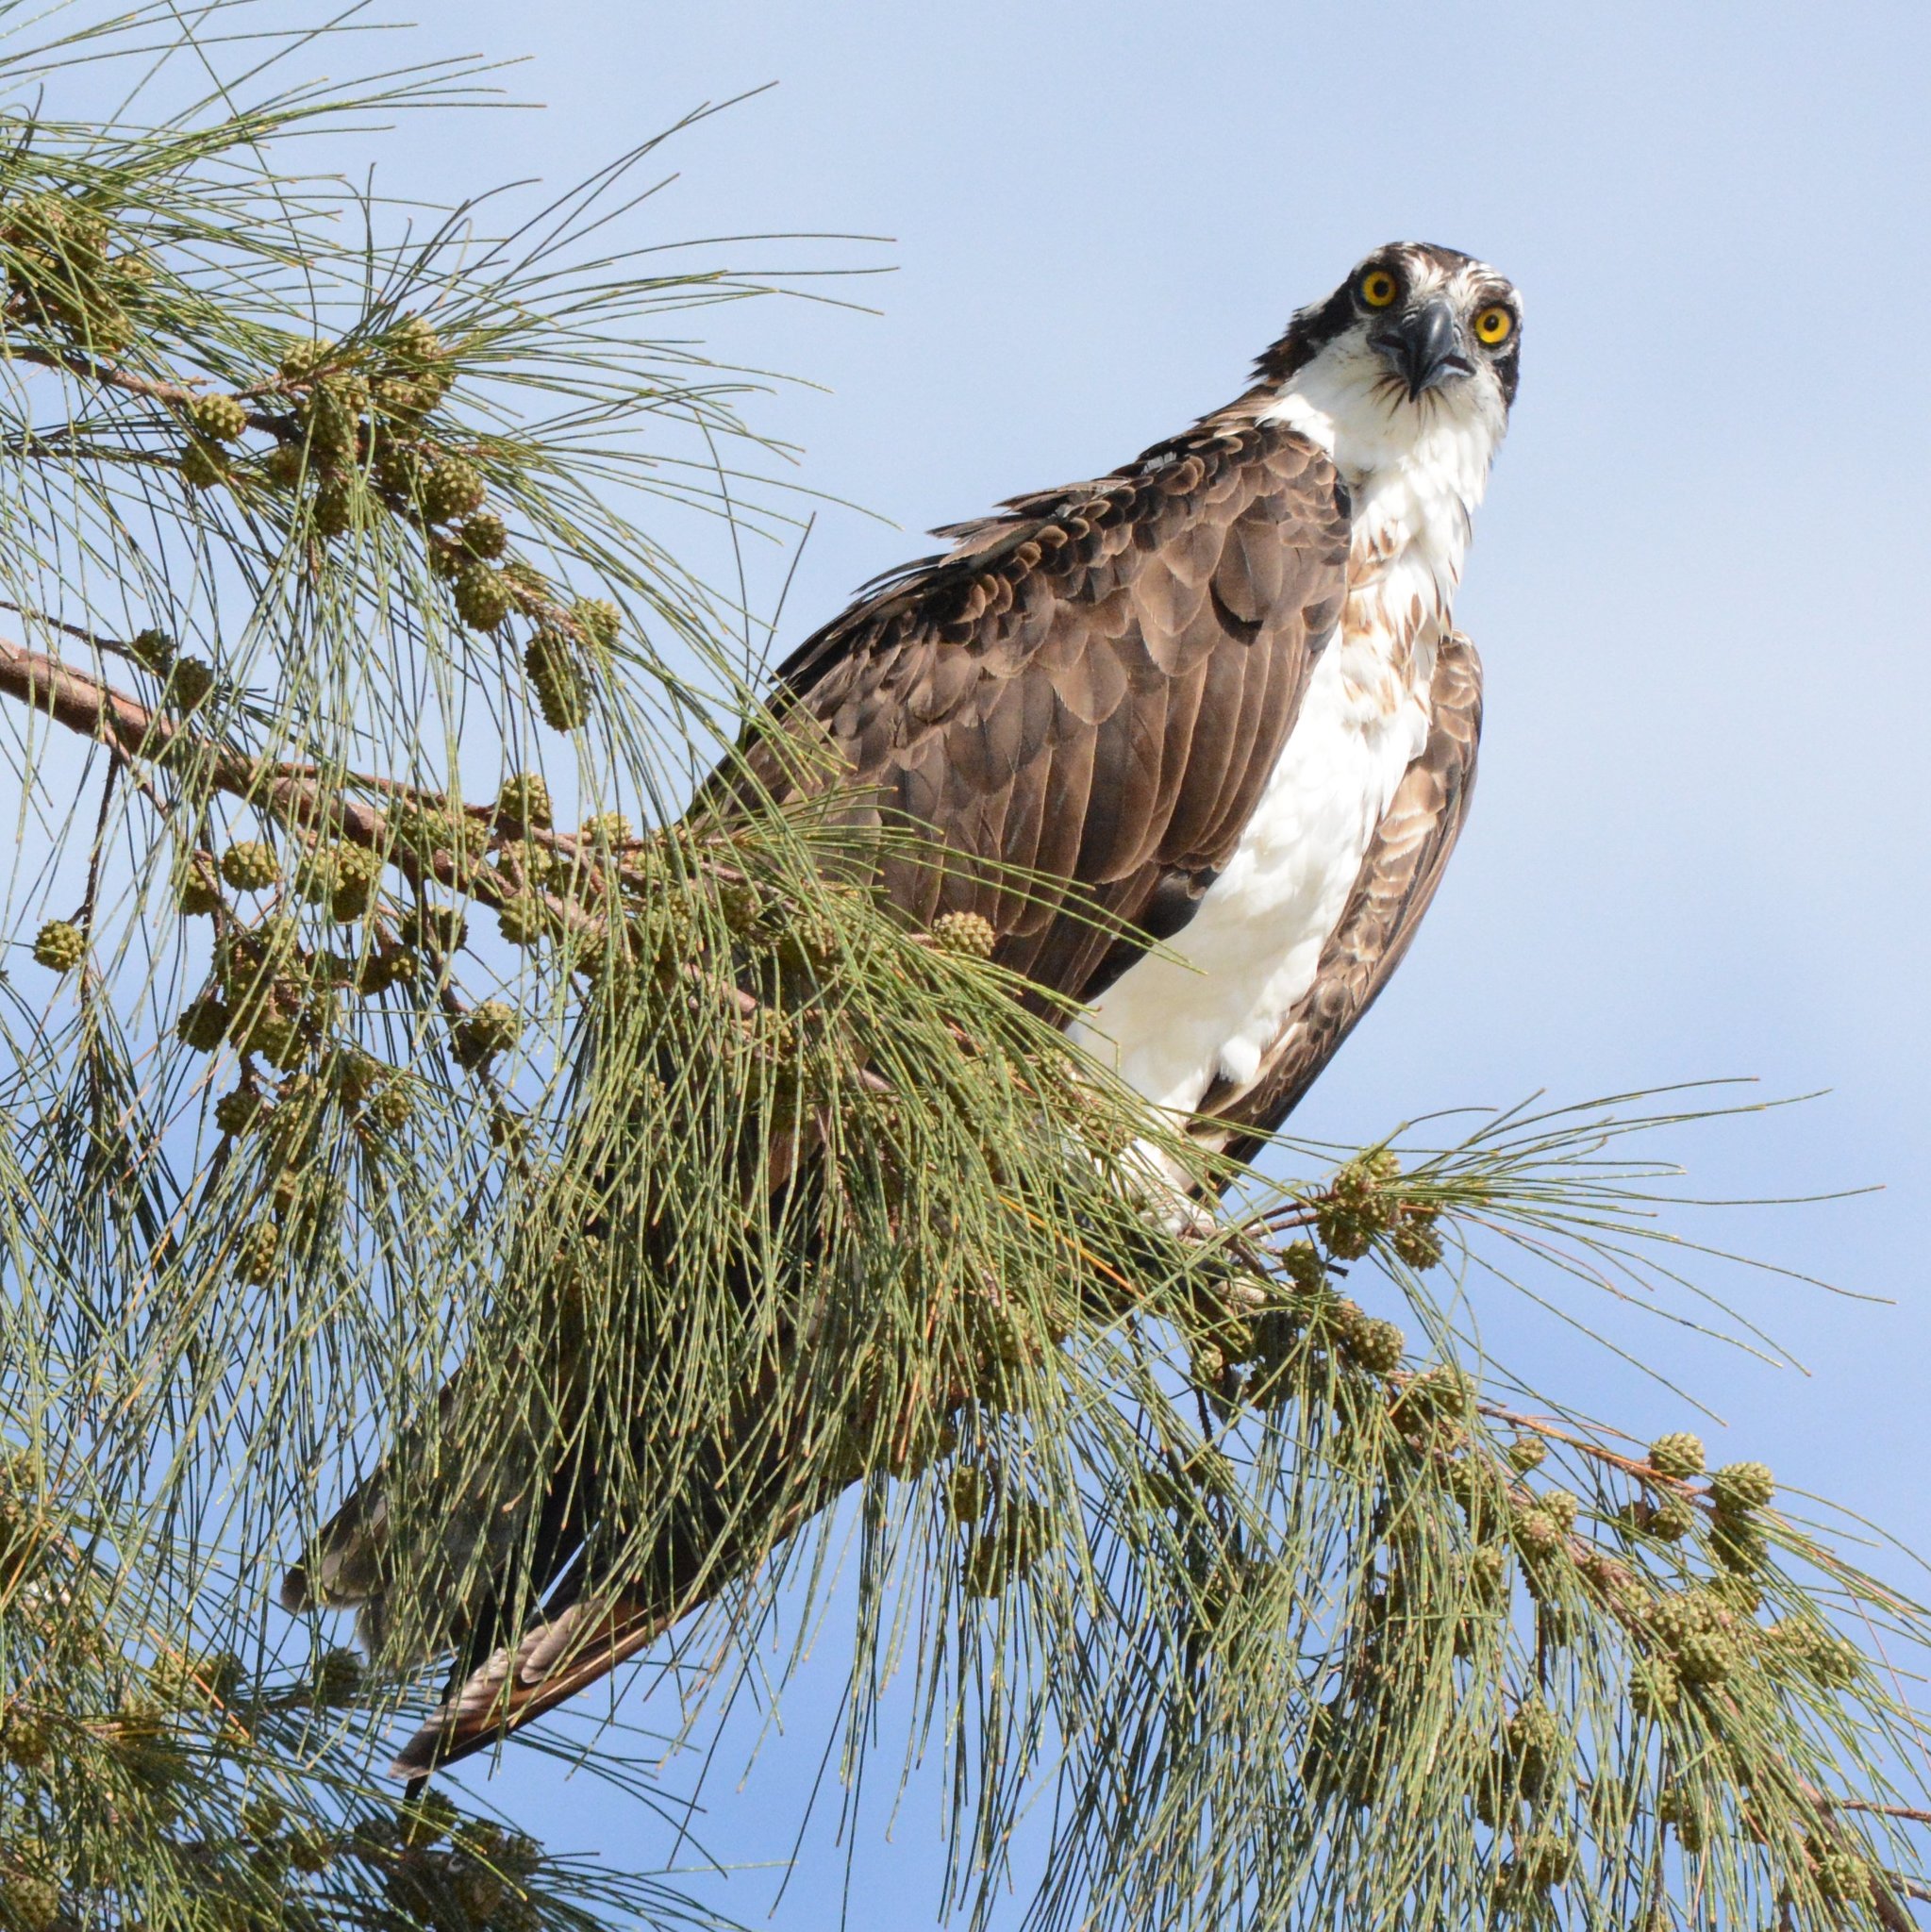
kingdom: Animalia
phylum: Chordata
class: Aves
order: Accipitriformes
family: Pandionidae
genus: Pandion
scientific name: Pandion haliaetus
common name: Osprey
